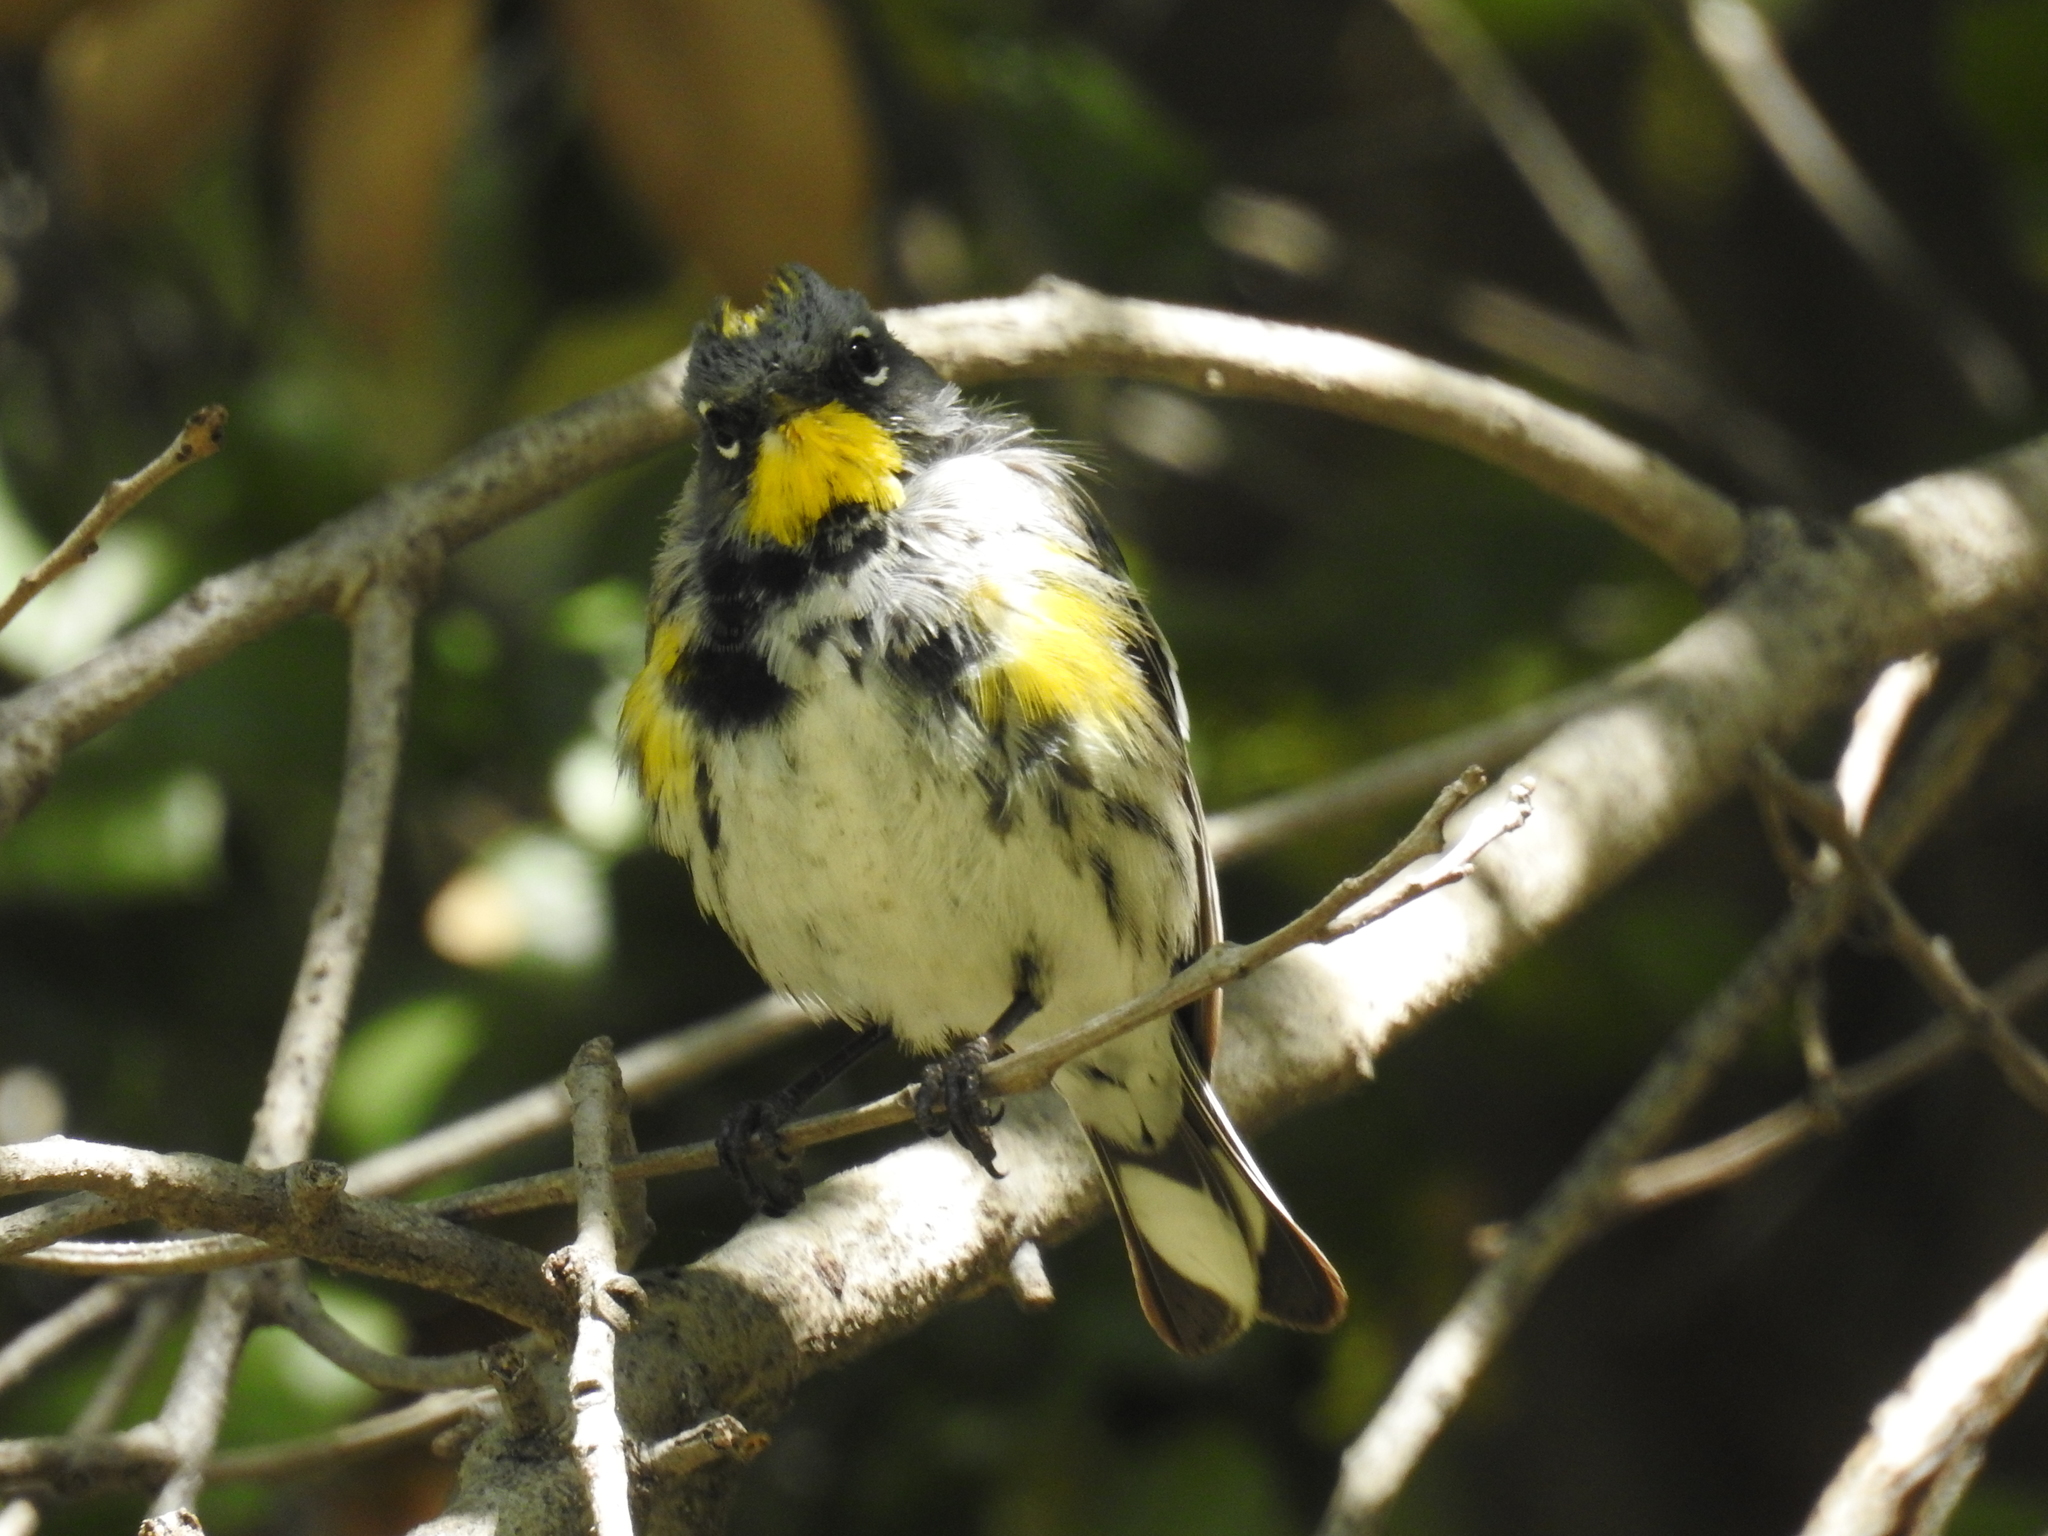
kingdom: Animalia
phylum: Chordata
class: Aves
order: Passeriformes
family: Parulidae
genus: Setophaga
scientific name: Setophaga coronata
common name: Myrtle warbler
